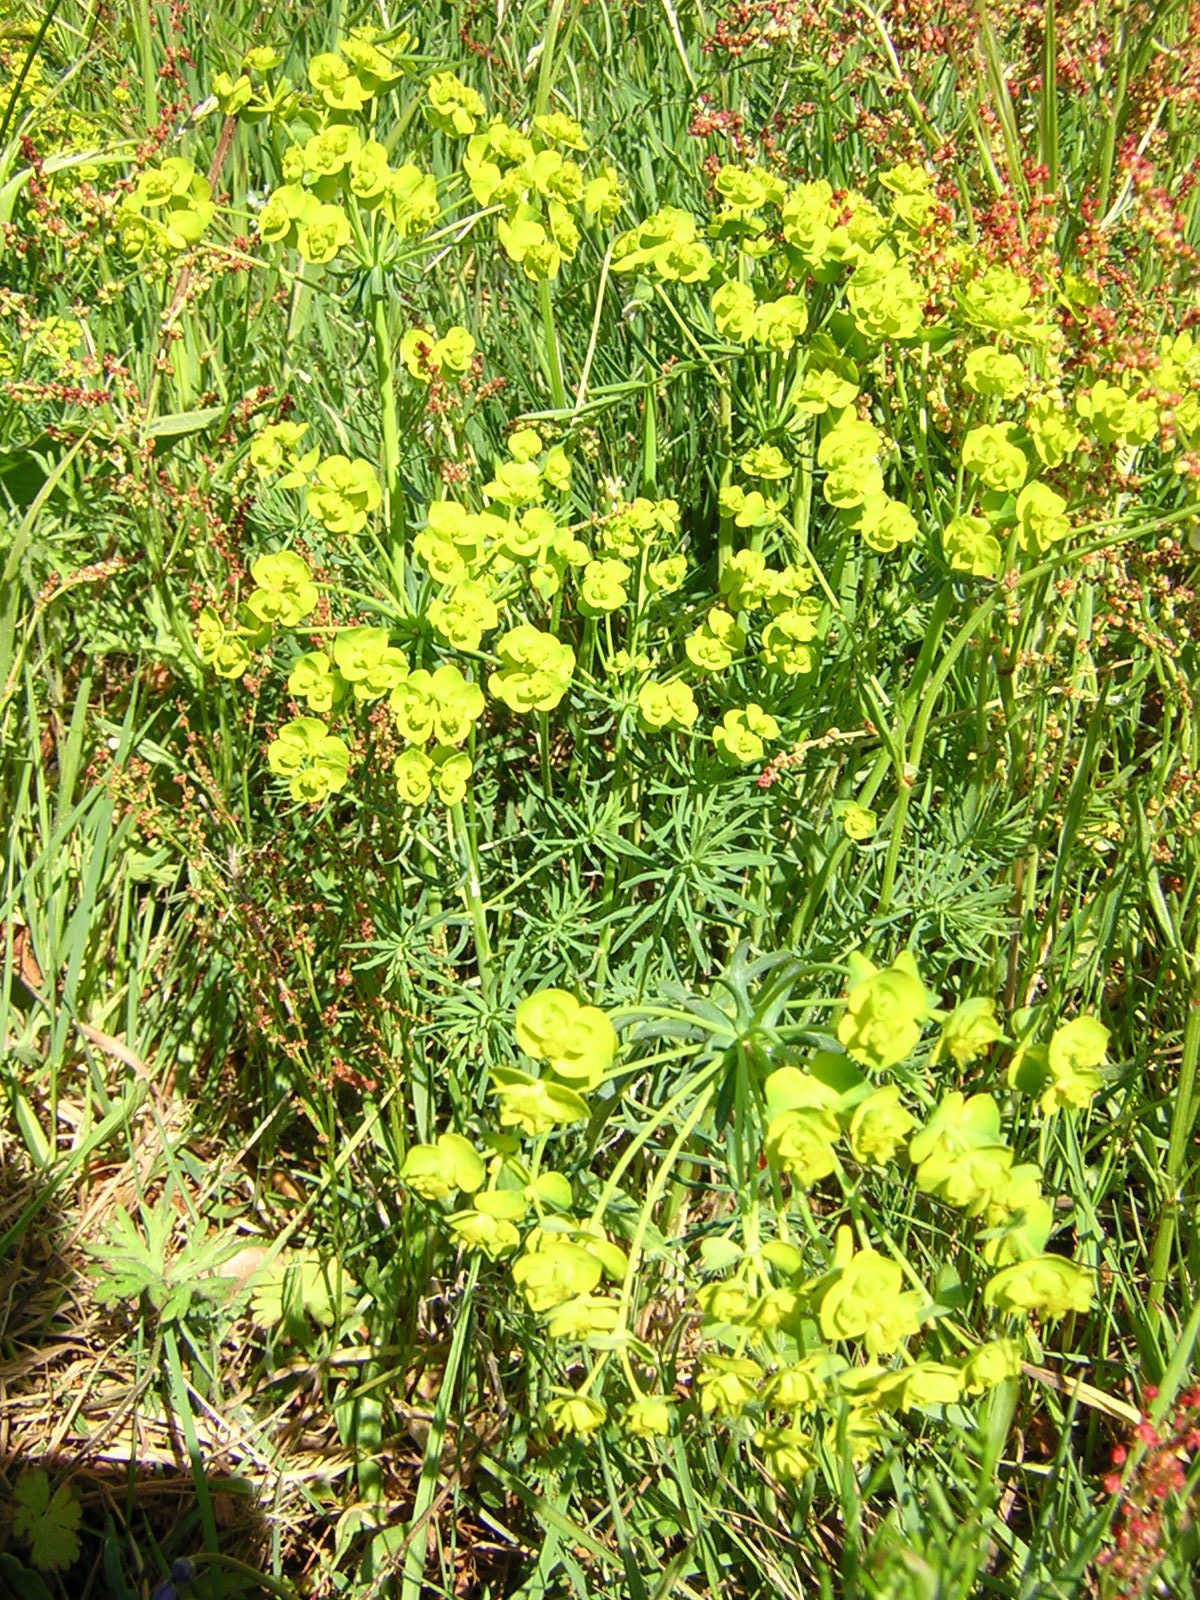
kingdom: Plantae
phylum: Tracheophyta
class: Magnoliopsida
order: Malpighiales
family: Euphorbiaceae
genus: Euphorbia
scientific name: Euphorbia cyparissias
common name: Cypress spurge
